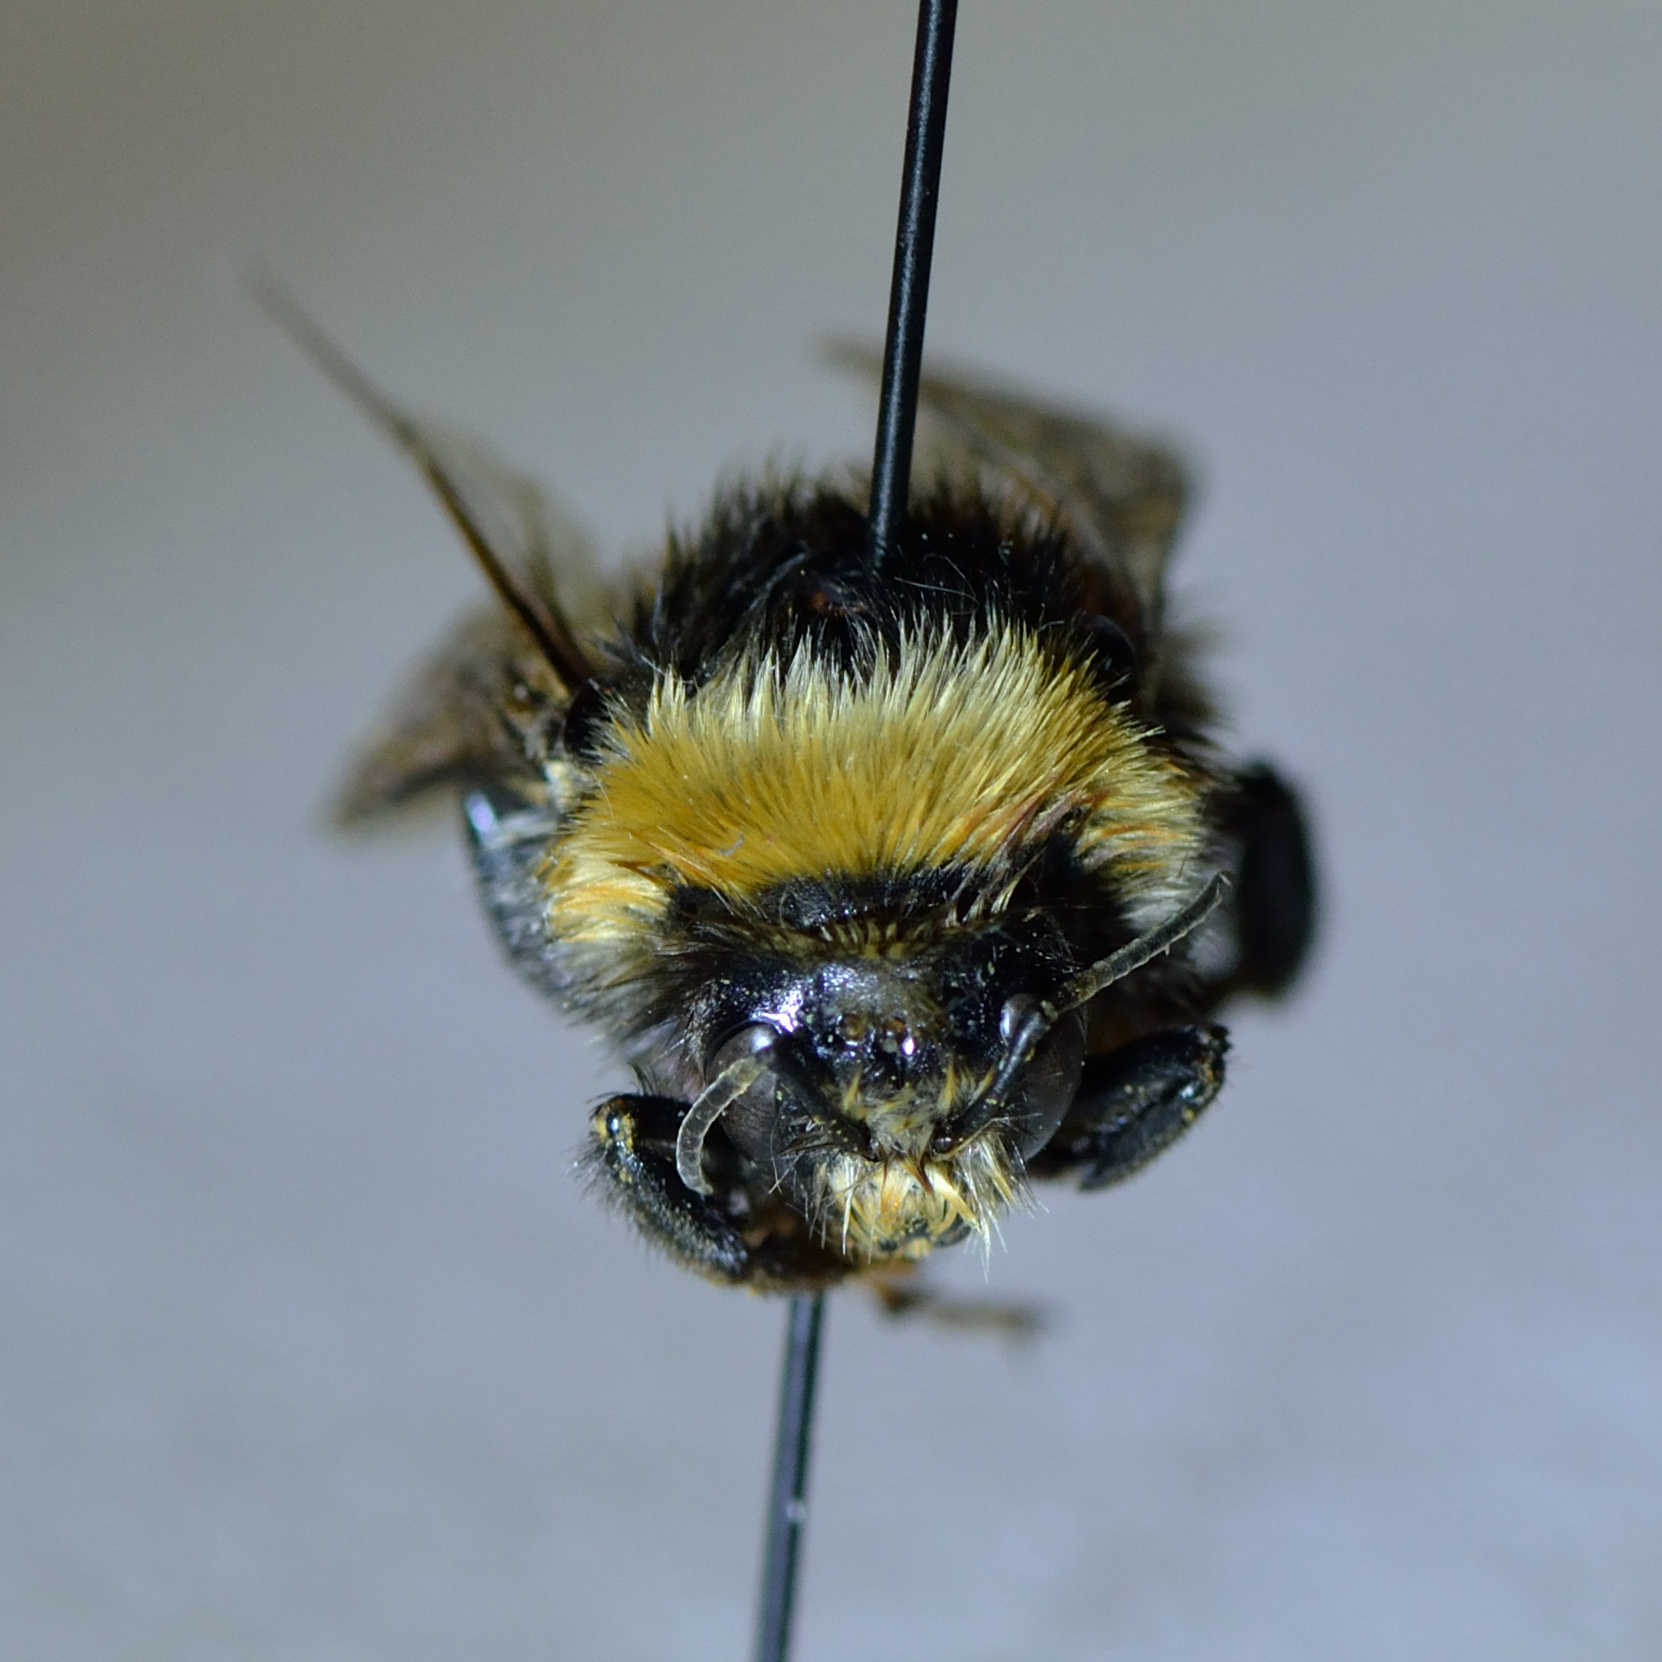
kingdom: Animalia
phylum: Arthropoda
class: Insecta
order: Hymenoptera
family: Apidae
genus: Bombus
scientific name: Bombus semenoviellus
